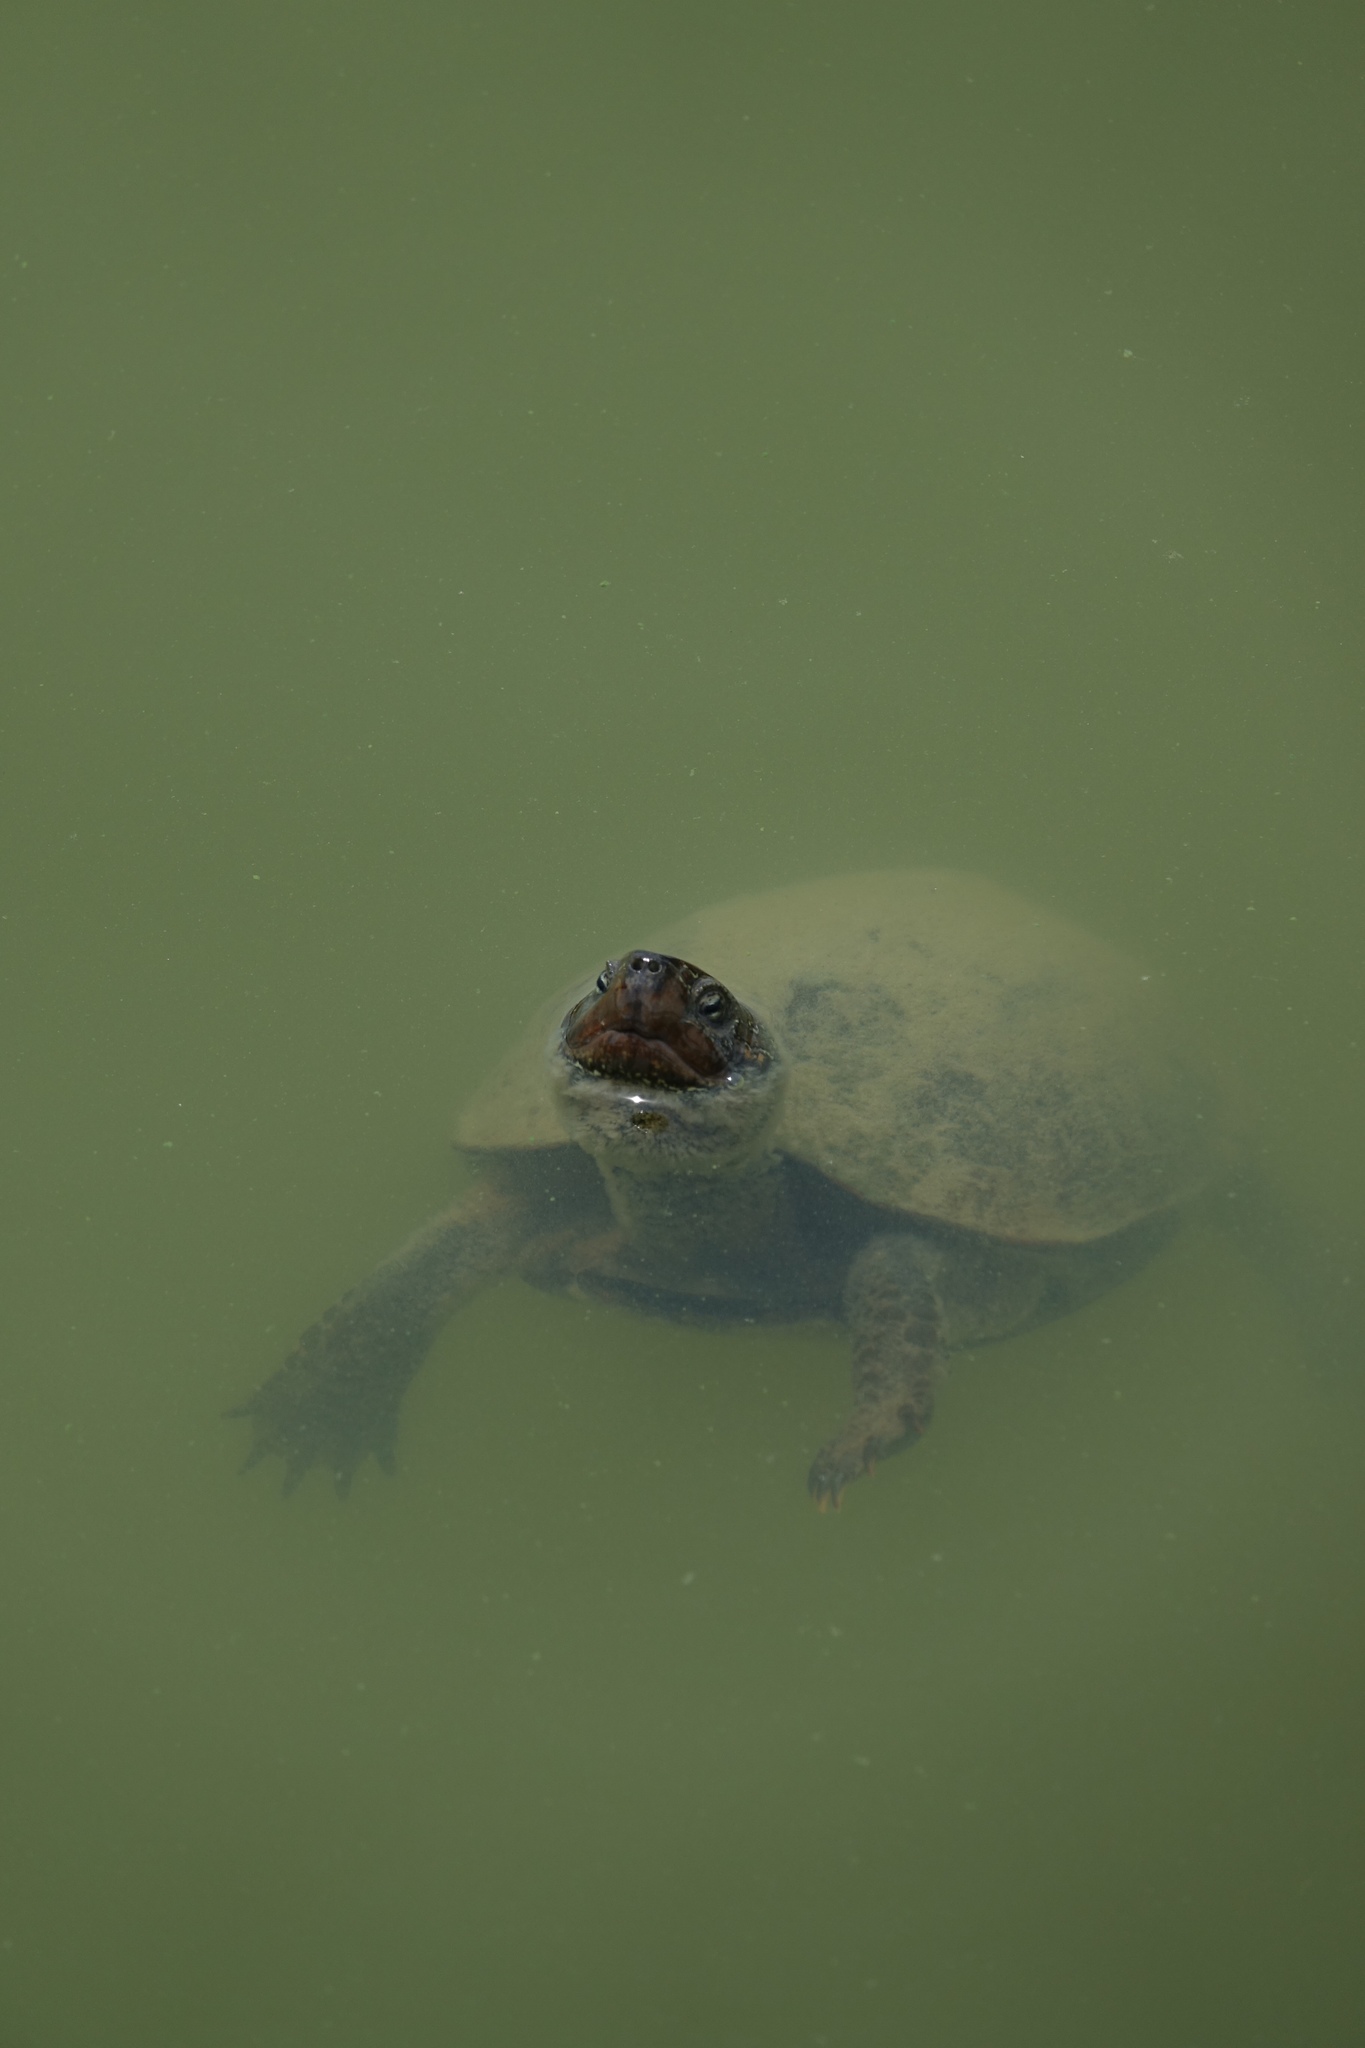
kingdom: Animalia
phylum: Chordata
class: Testudines
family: Geoemydidae
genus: Mauremys
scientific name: Mauremys reevesii
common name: Chinese pond turtle
